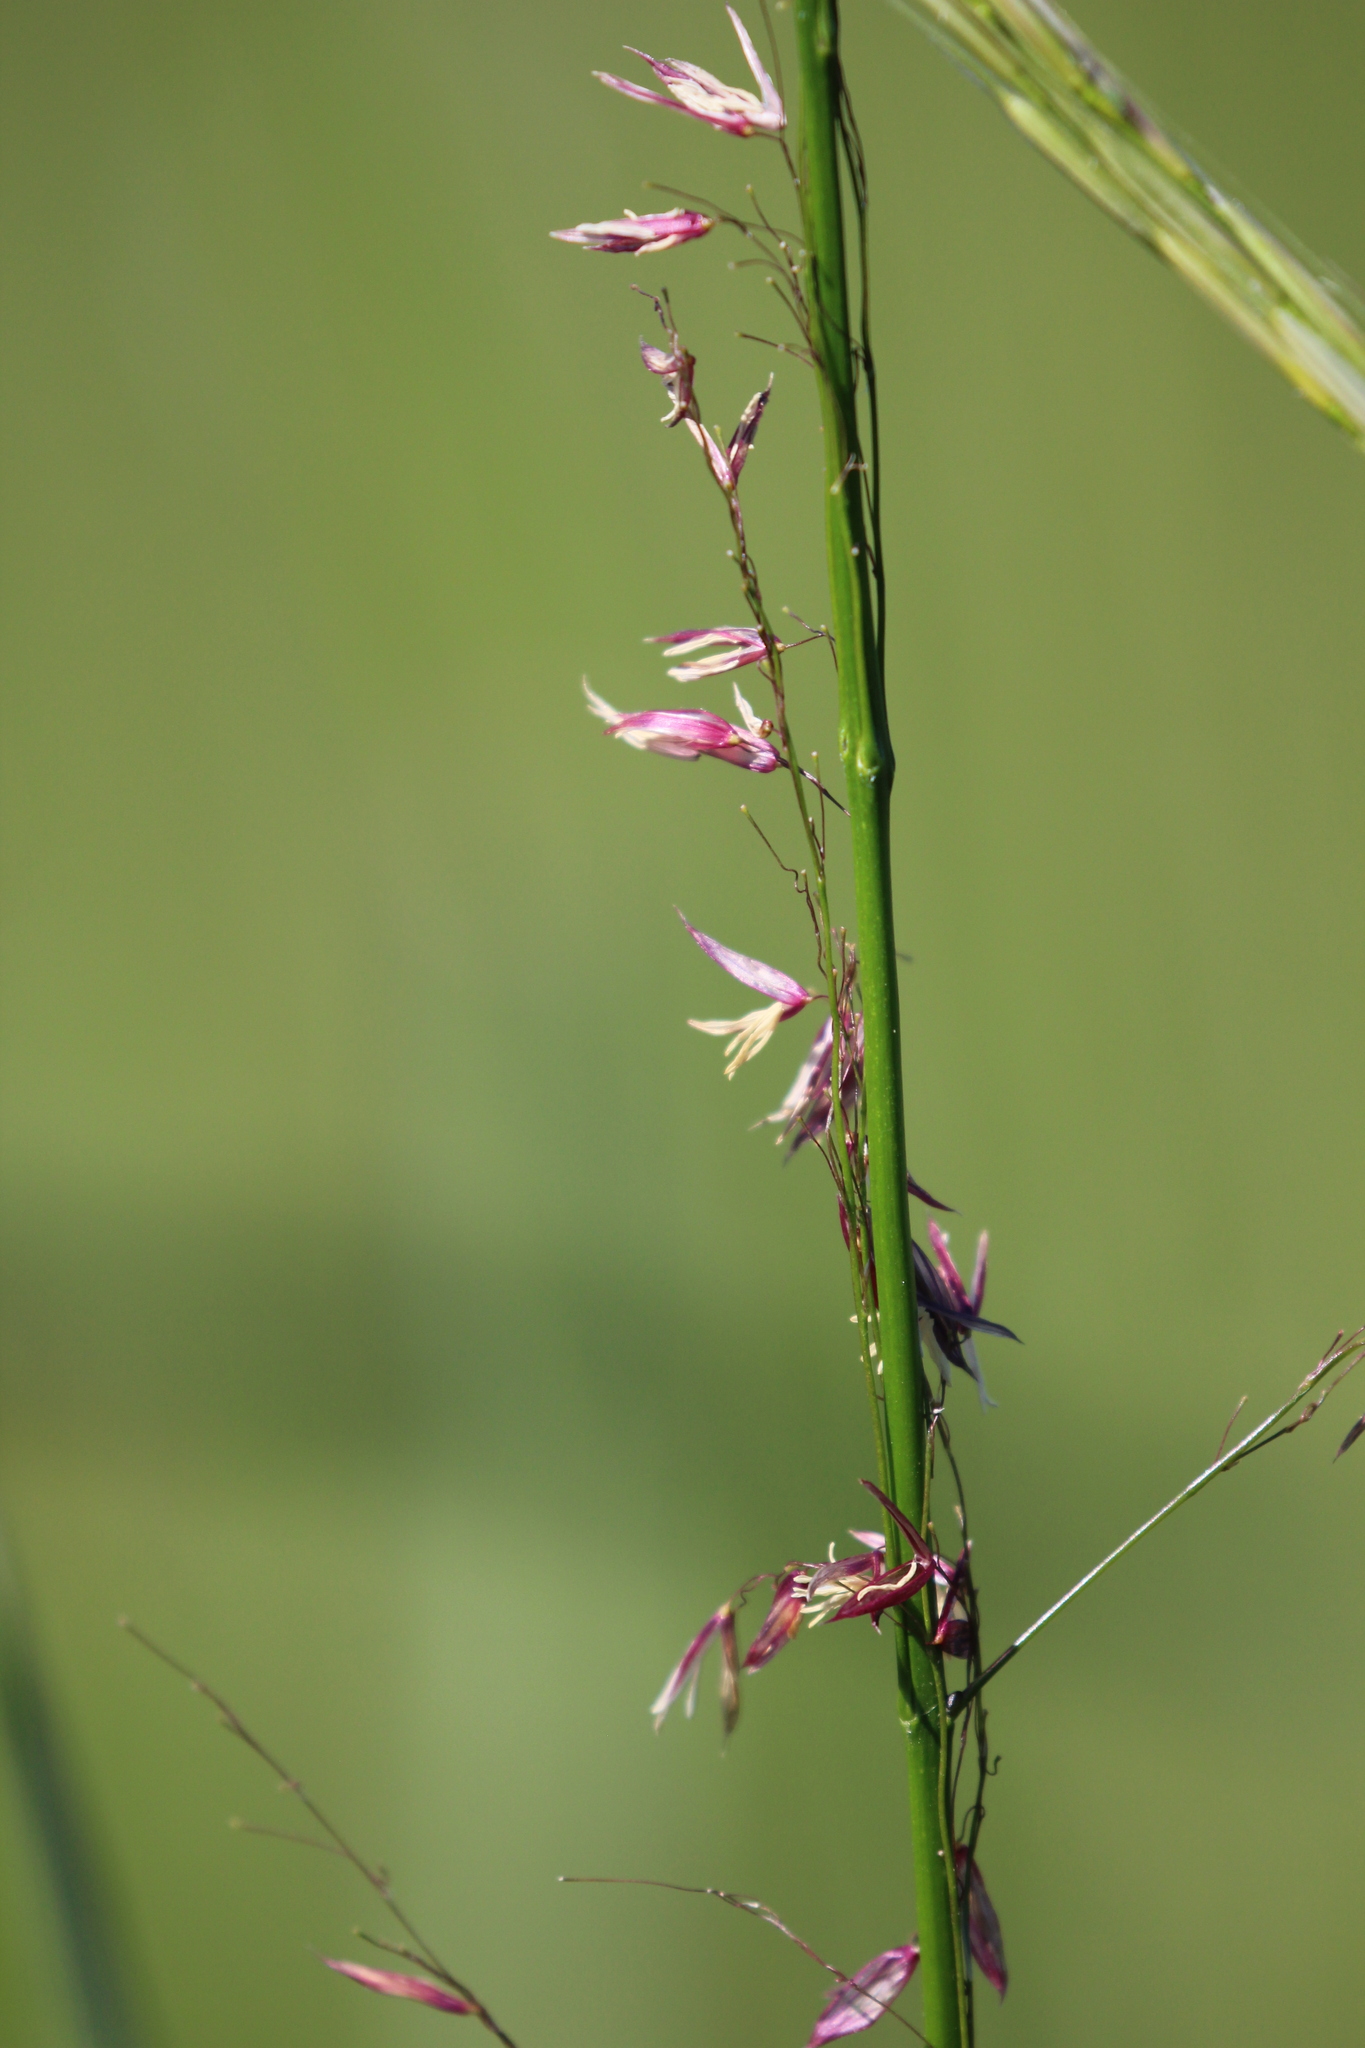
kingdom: Plantae
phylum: Tracheophyta
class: Liliopsida
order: Poales
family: Poaceae
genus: Zizania
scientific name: Zizania palustris
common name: Northern wild rice
